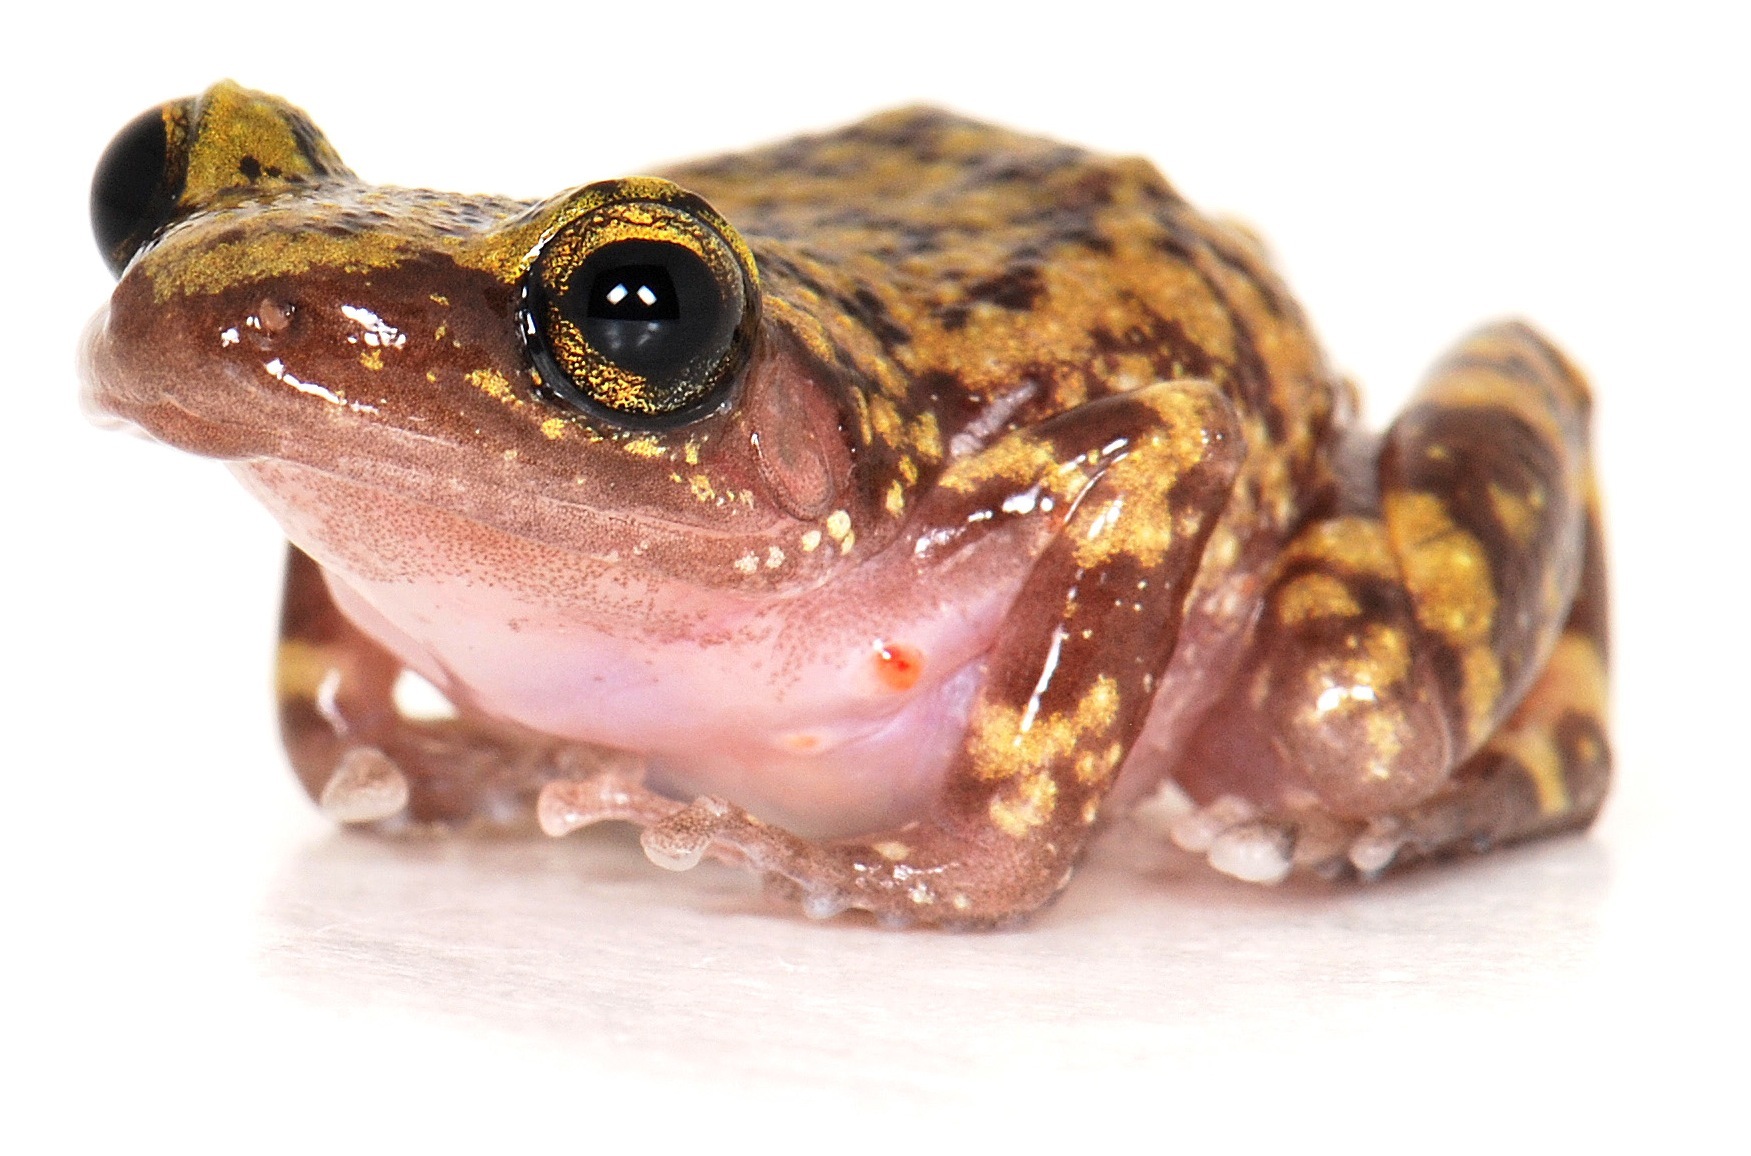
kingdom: Animalia
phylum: Chordata
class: Amphibia
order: Anura
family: Eleutherodactylidae
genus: Eleutherodactylus
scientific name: Eleutherodactylus marnockii
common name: Cliff chirping frog
